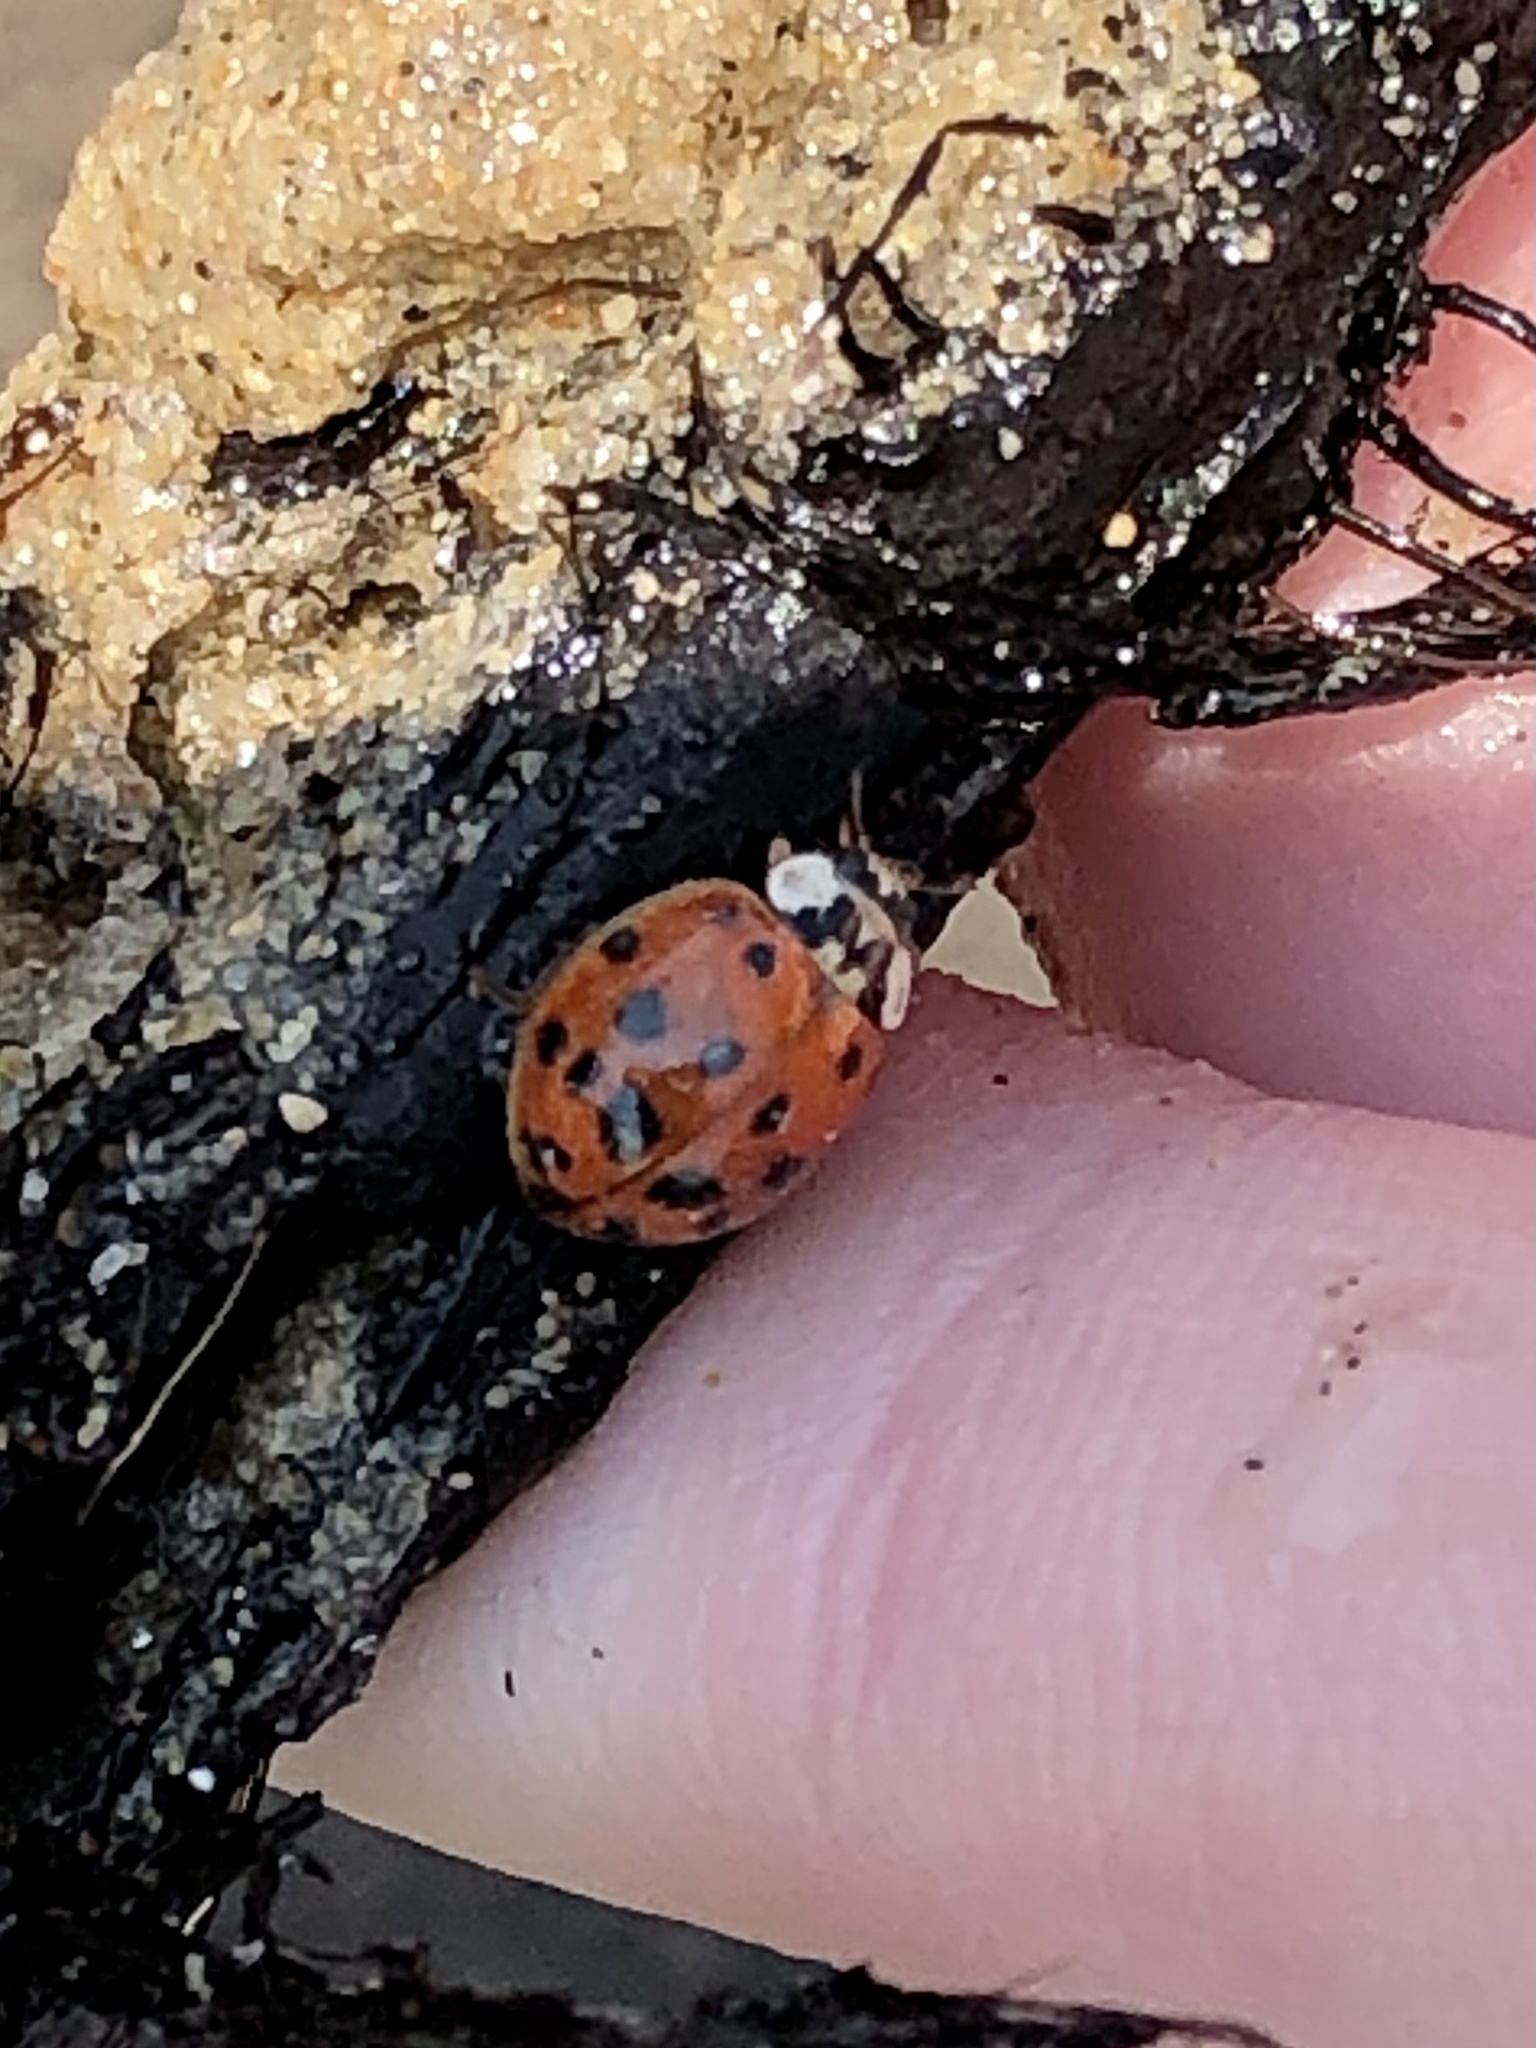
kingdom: Animalia
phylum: Arthropoda
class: Insecta
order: Coleoptera
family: Coccinellidae
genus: Harmonia
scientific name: Harmonia axyridis
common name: Harlequin ladybird
